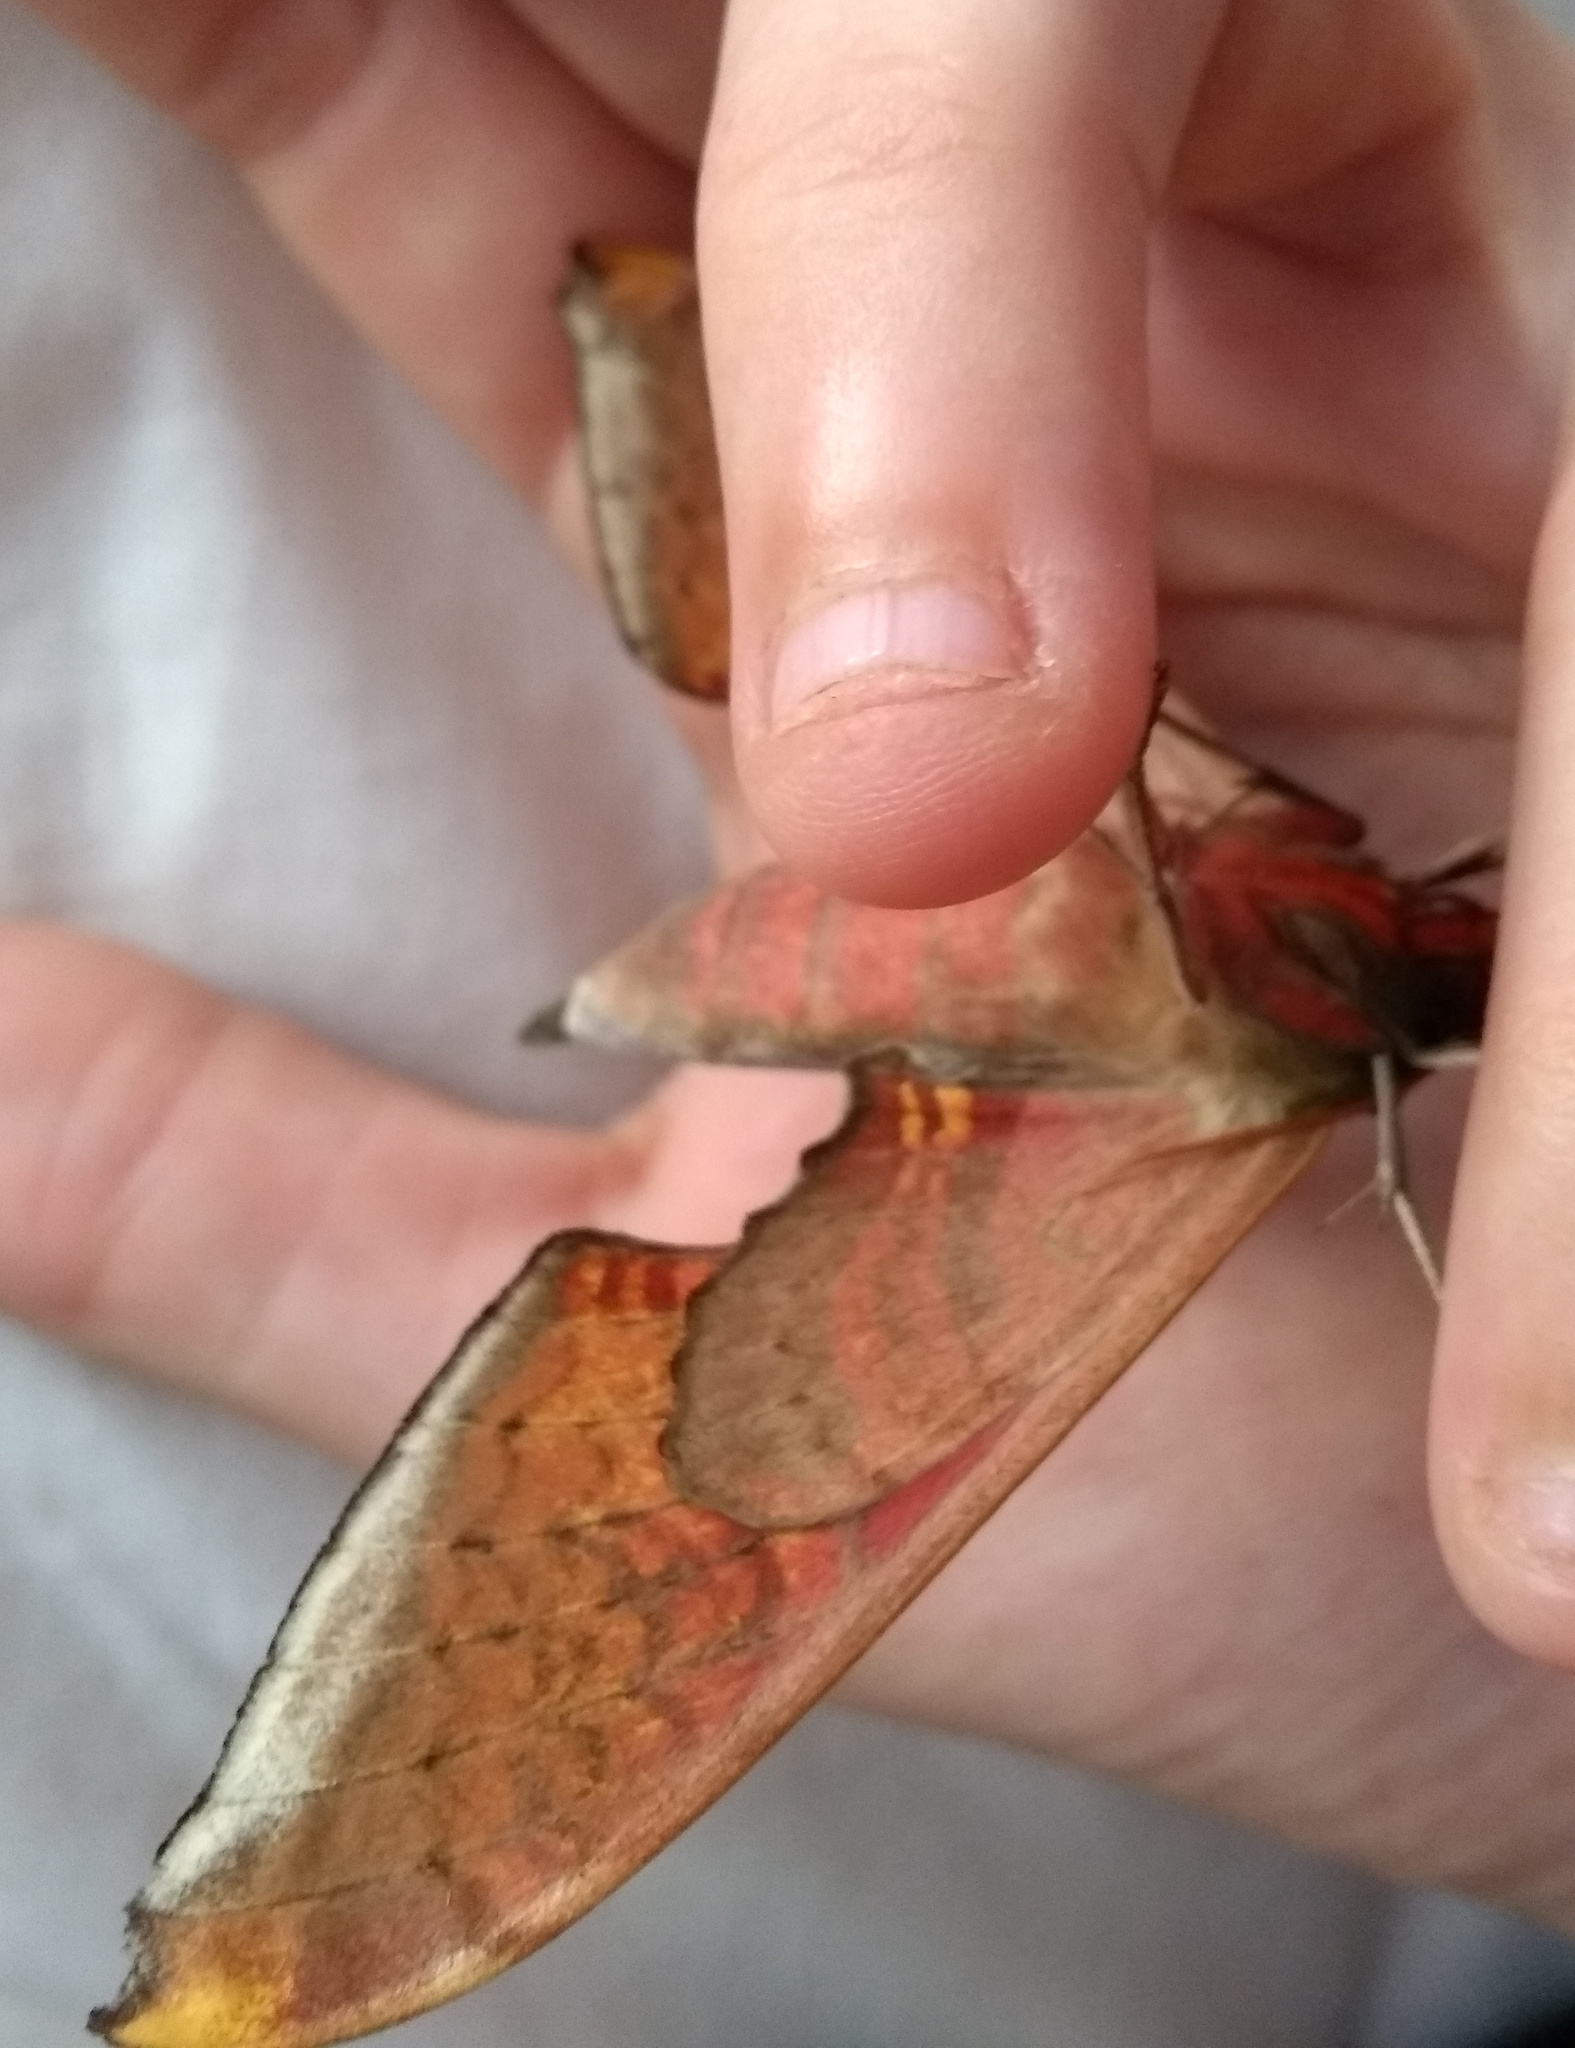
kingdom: Animalia
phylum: Arthropoda
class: Insecta
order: Lepidoptera
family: Sphingidae
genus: Adhemarius
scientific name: Adhemarius palmeri
